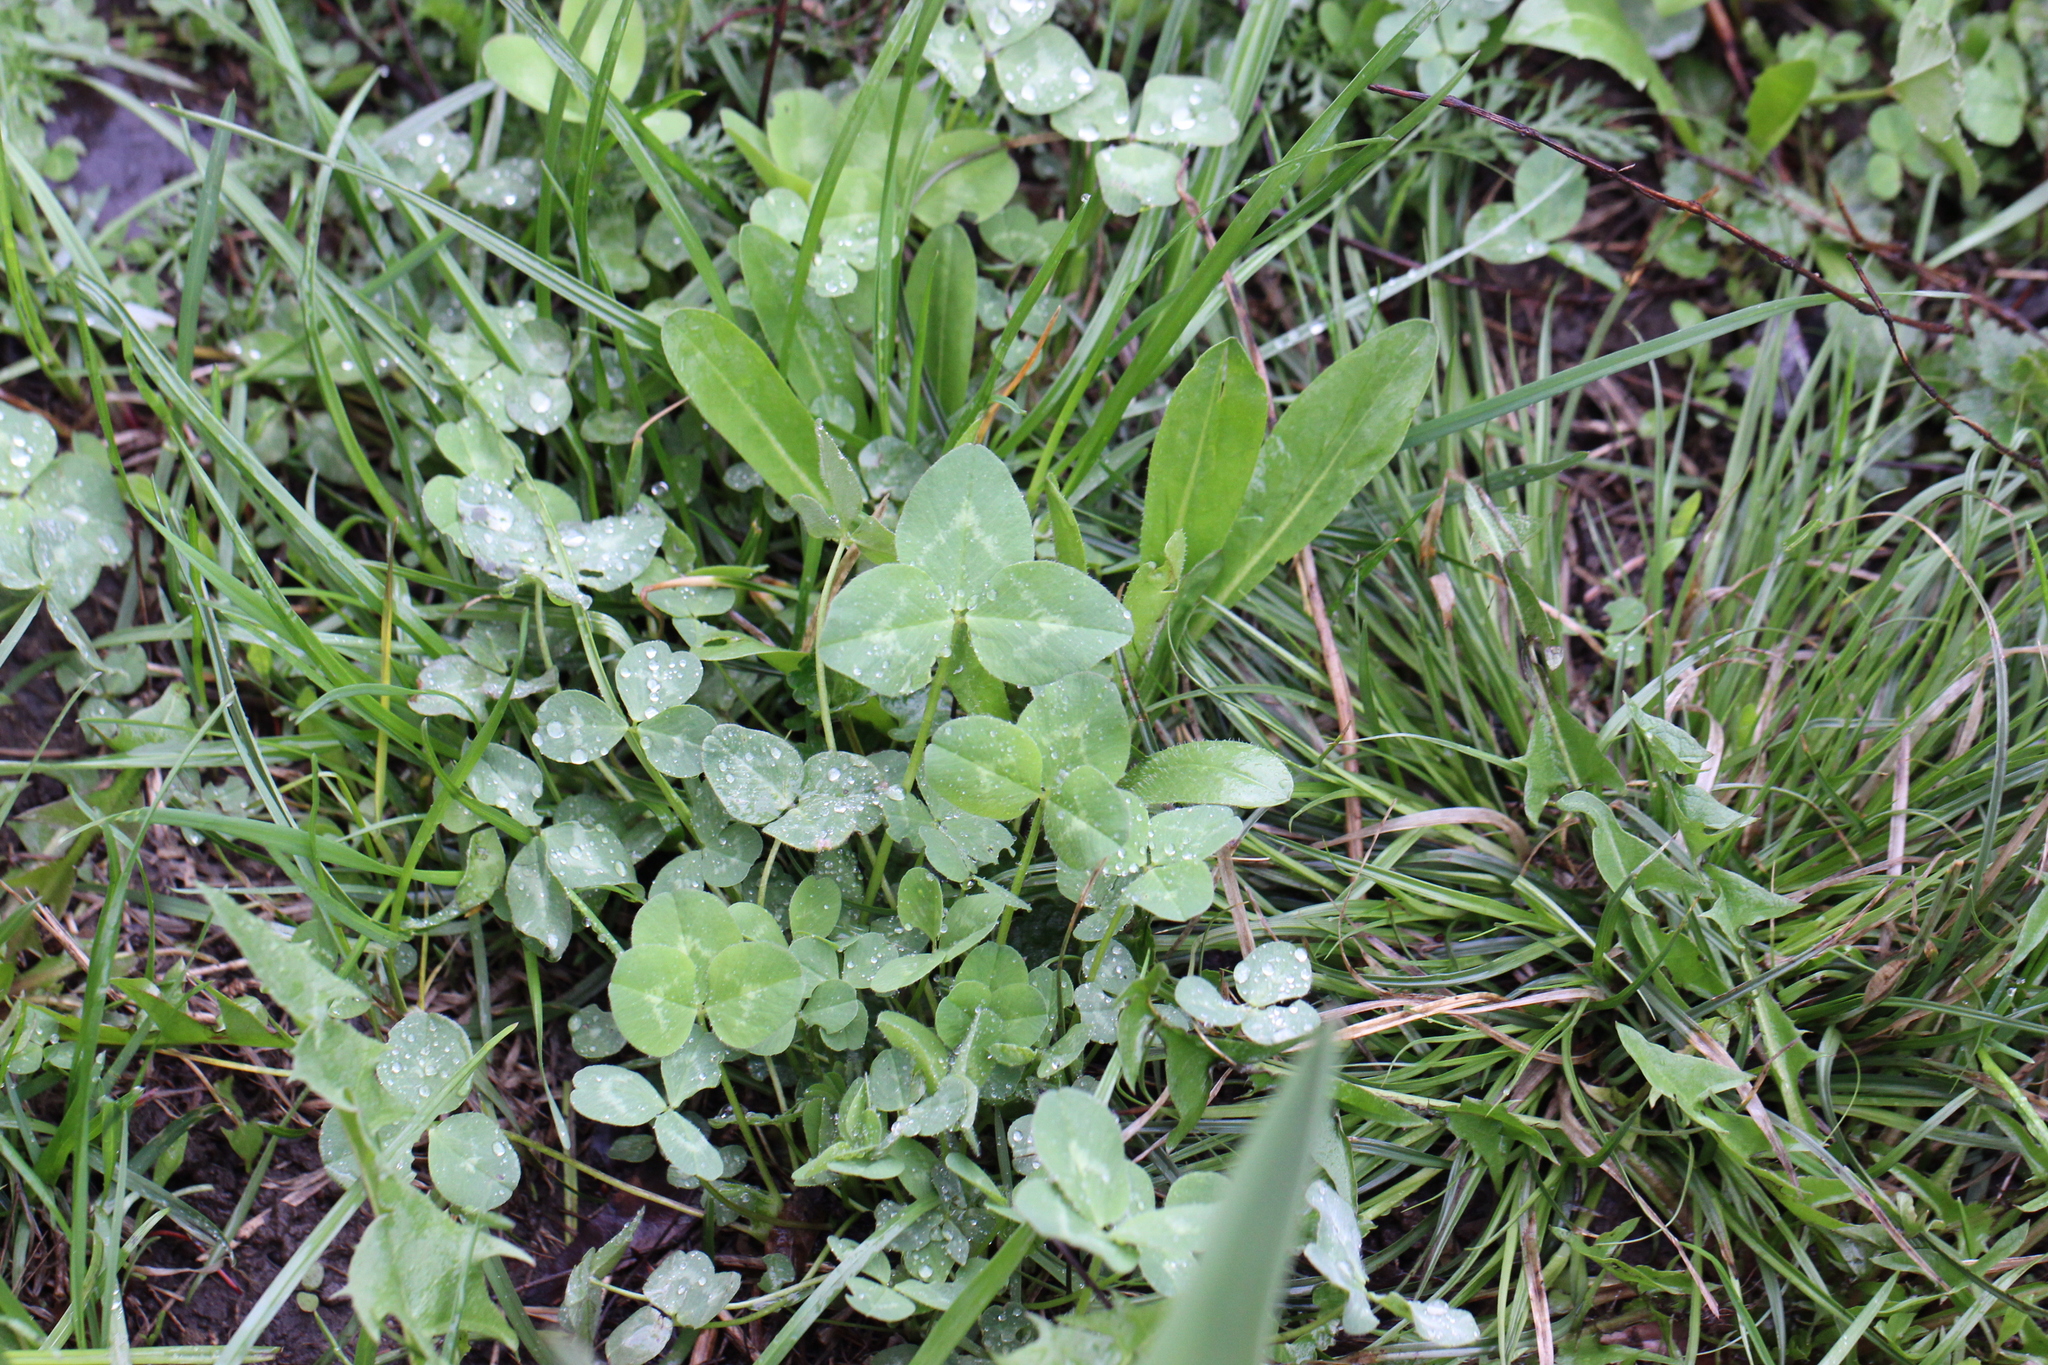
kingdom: Plantae
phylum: Tracheophyta
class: Magnoliopsida
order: Fabales
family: Fabaceae
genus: Trifolium
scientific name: Trifolium repens
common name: White clover
